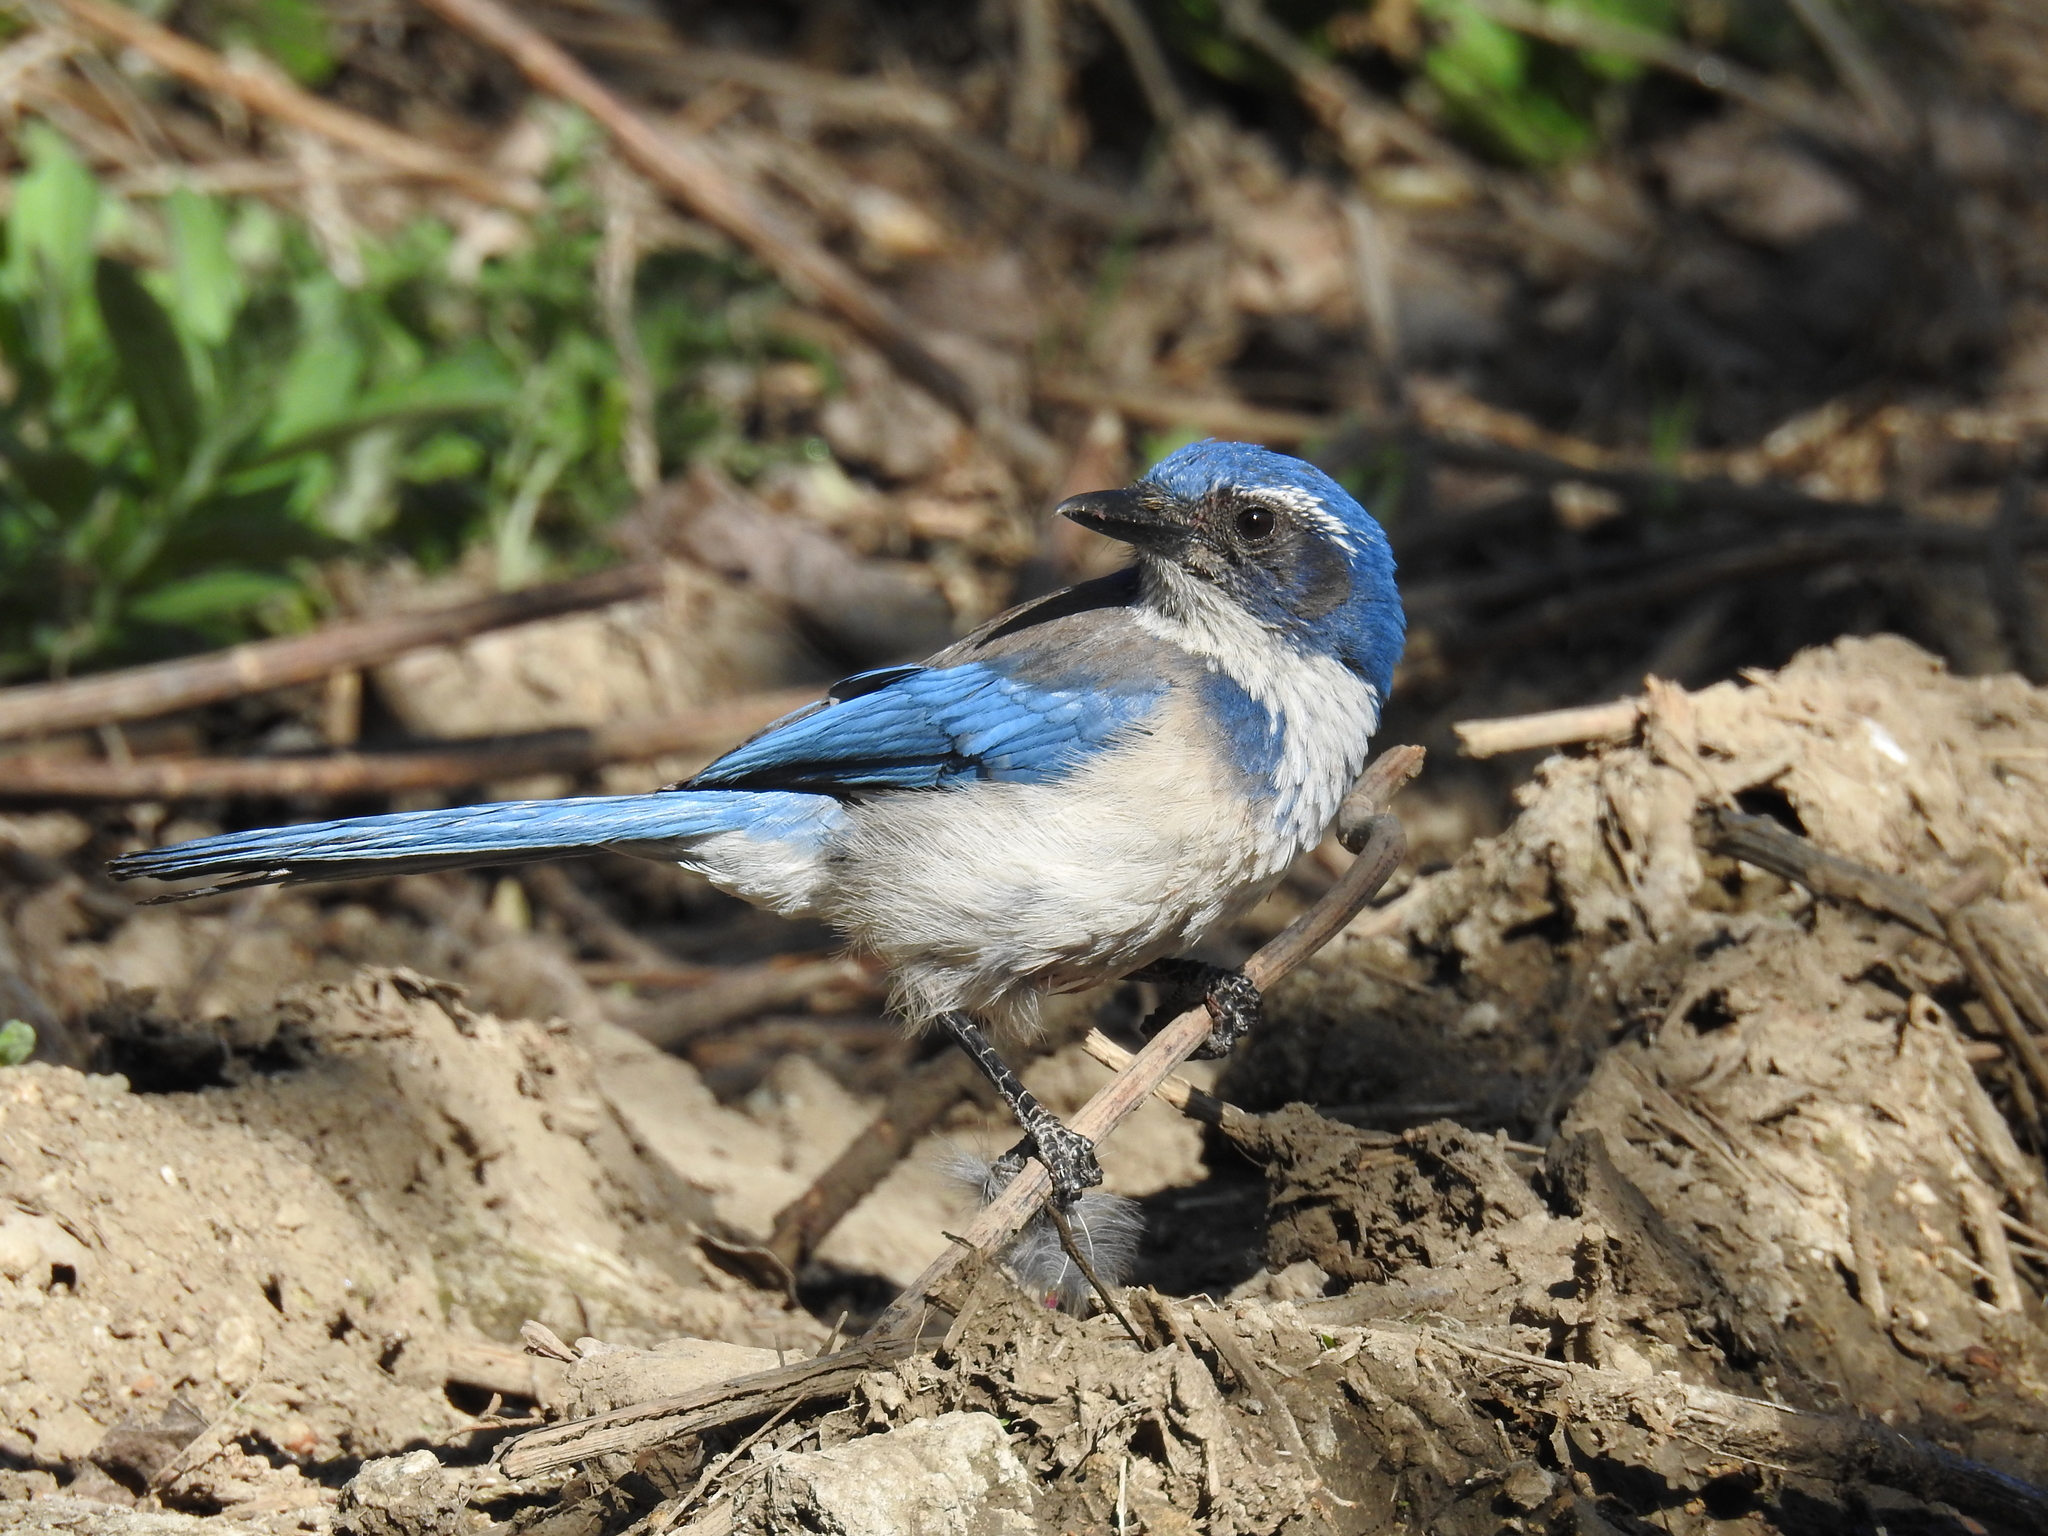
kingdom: Animalia
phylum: Chordata
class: Aves
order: Passeriformes
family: Corvidae
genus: Aphelocoma
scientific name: Aphelocoma californica
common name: California scrub-jay
